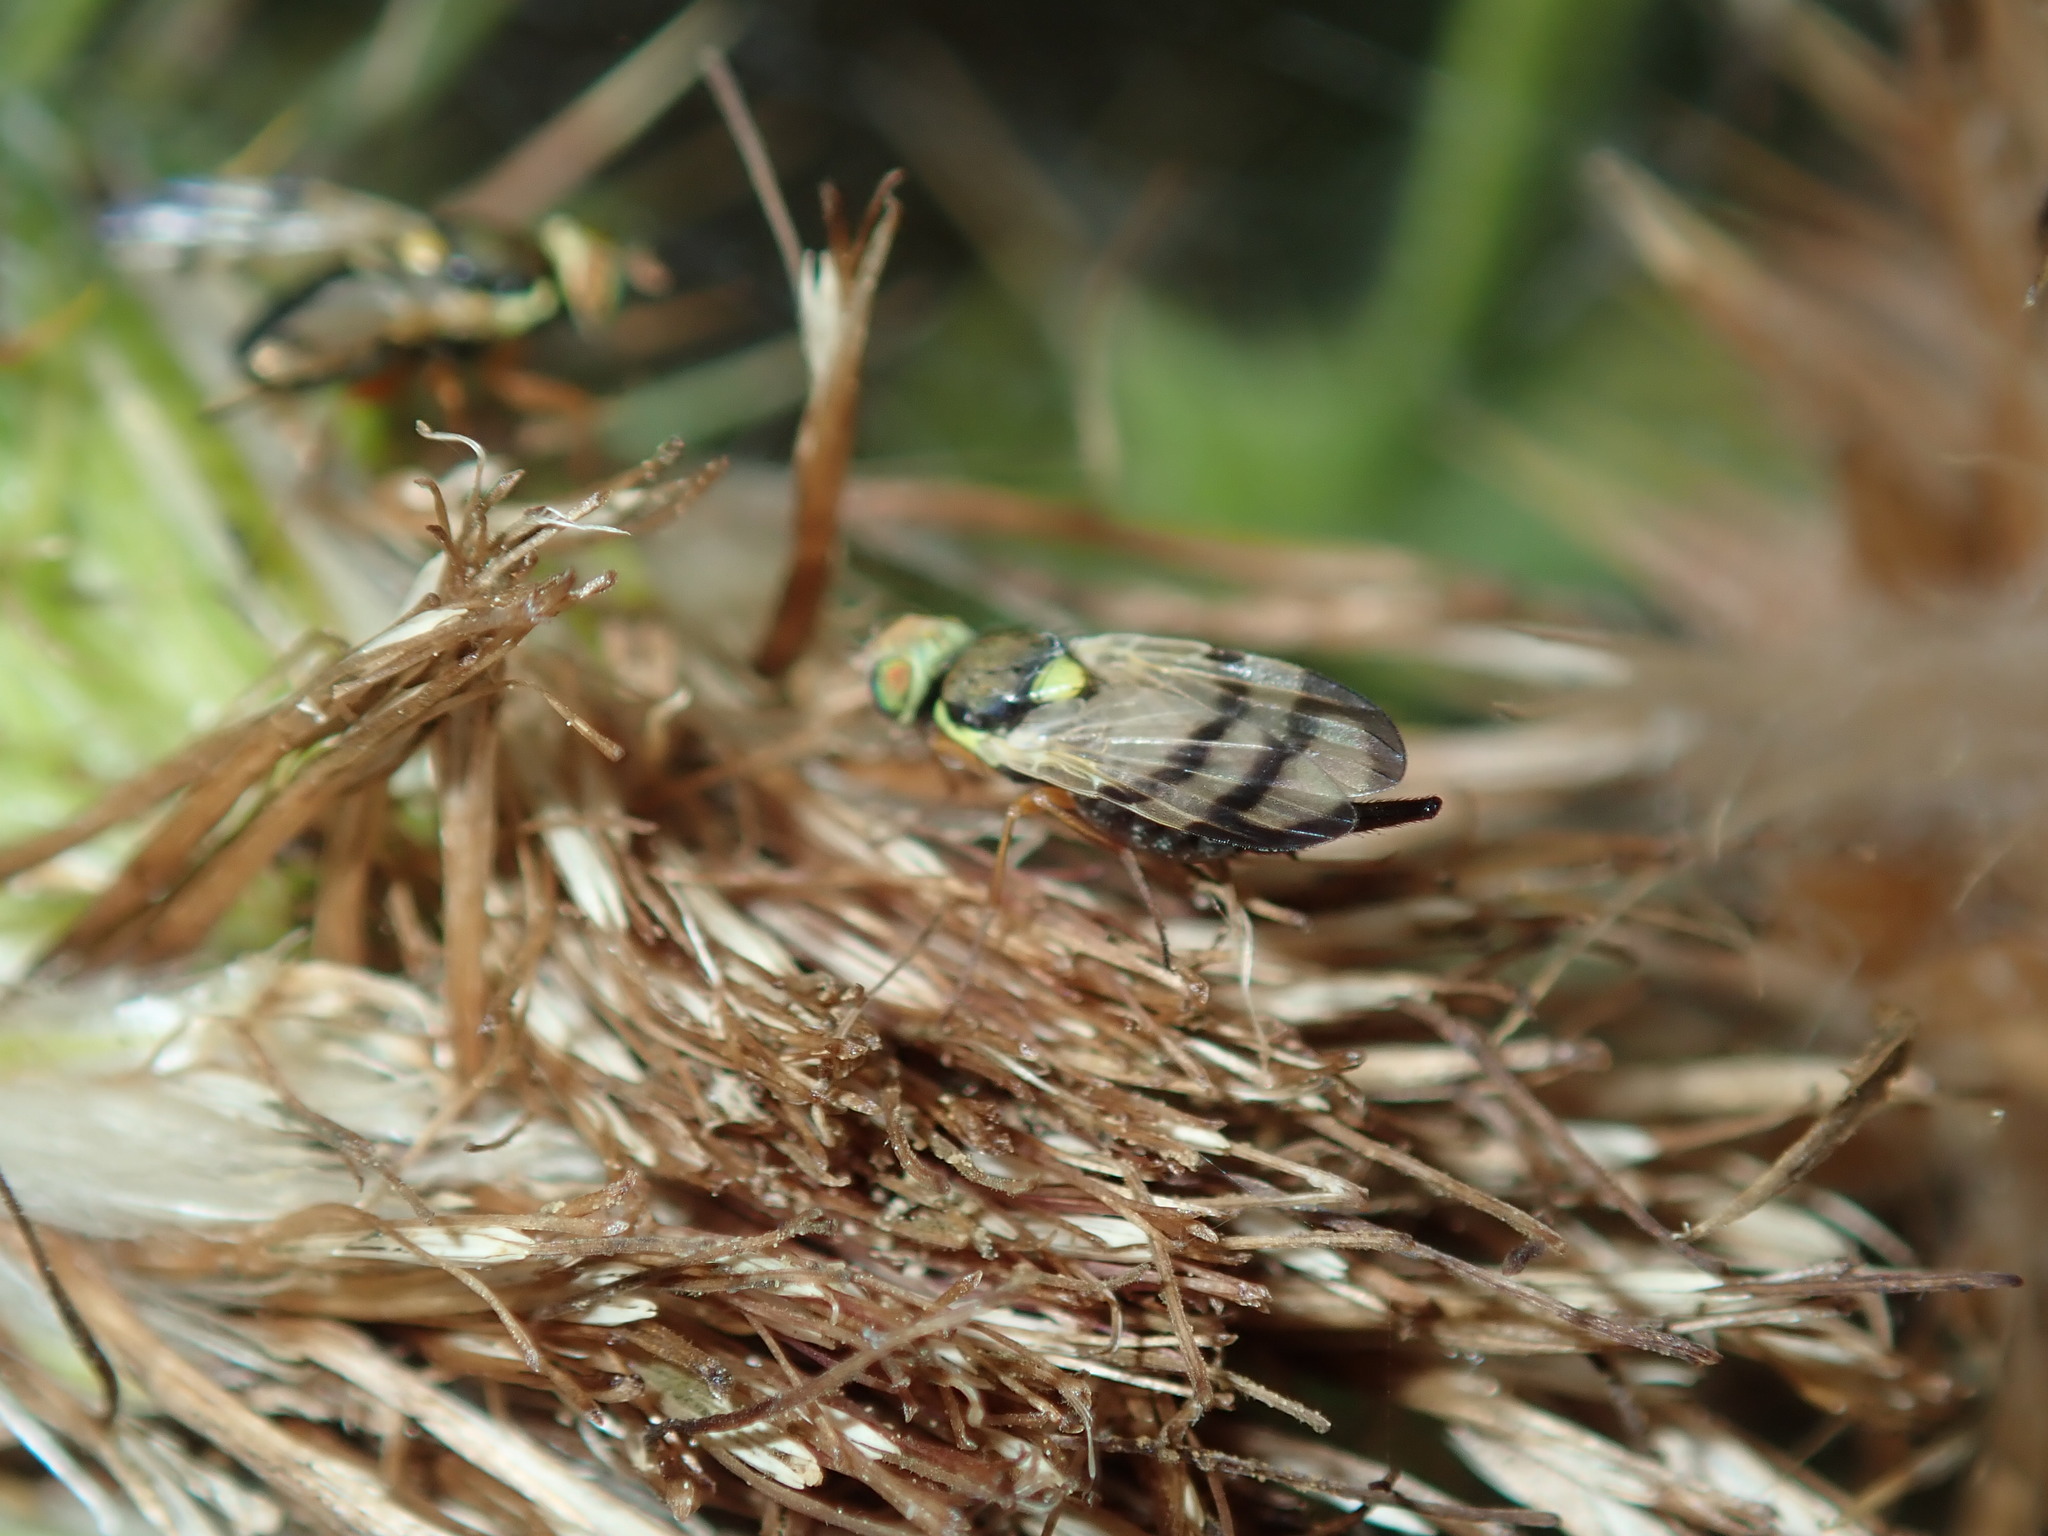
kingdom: Animalia
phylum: Arthropoda
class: Insecta
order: Diptera
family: Tephritidae
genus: Urophora
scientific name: Urophora stylata
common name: Fruit fly
